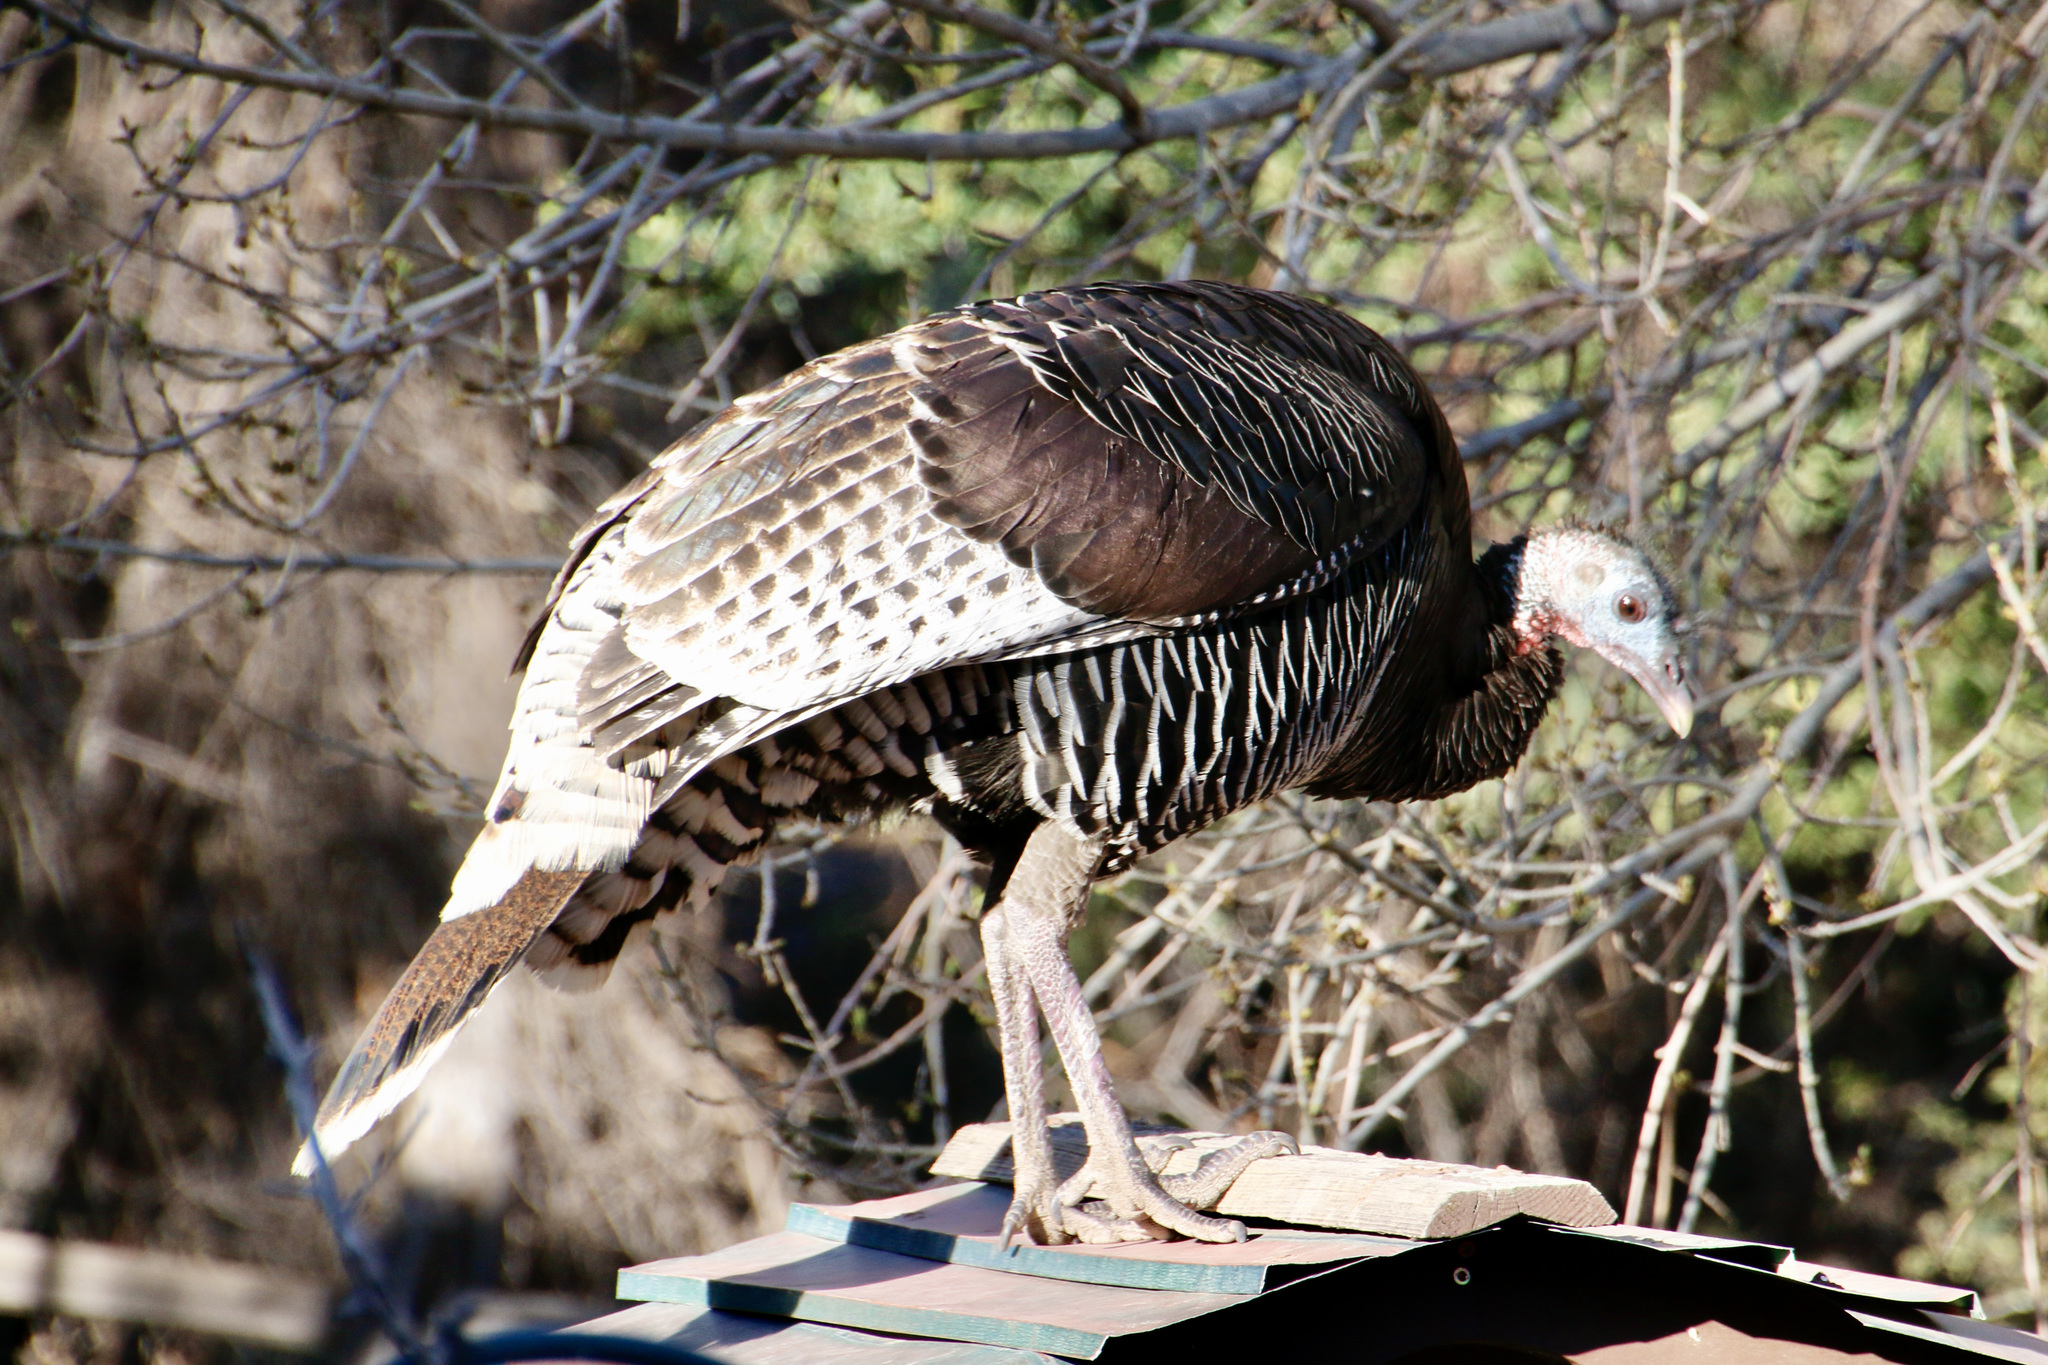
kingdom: Animalia
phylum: Chordata
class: Aves
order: Galliformes
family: Phasianidae
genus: Meleagris
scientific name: Meleagris gallopavo
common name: Wild turkey
